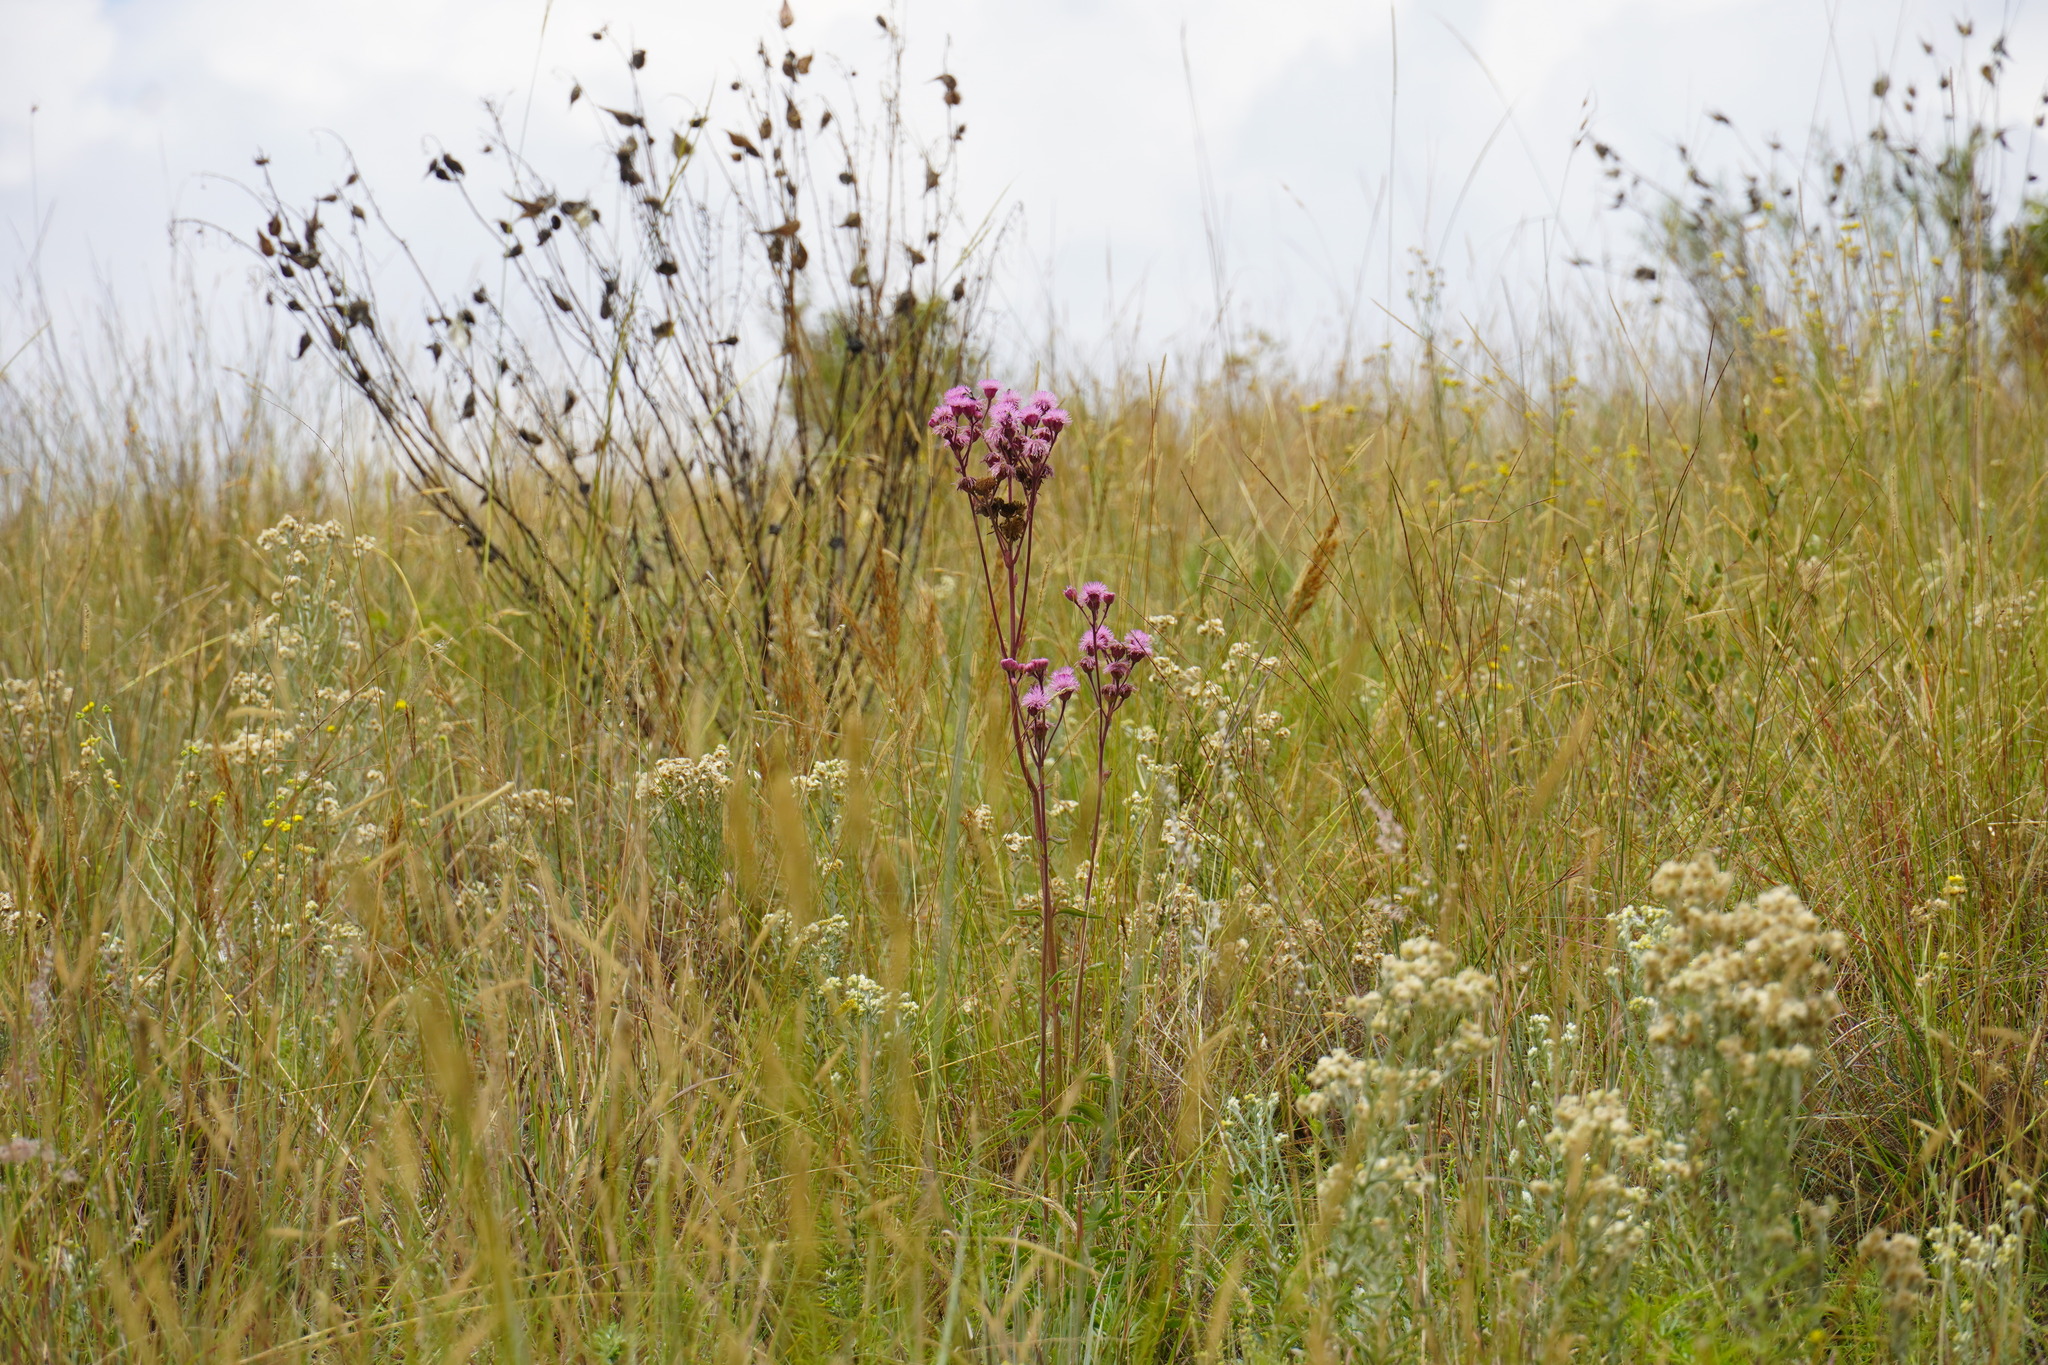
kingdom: Plantae
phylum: Tracheophyta
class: Magnoliopsida
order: Asterales
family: Asteraceae
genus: Campuloclinium
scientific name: Campuloclinium macrocephalum
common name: Pompomweed
